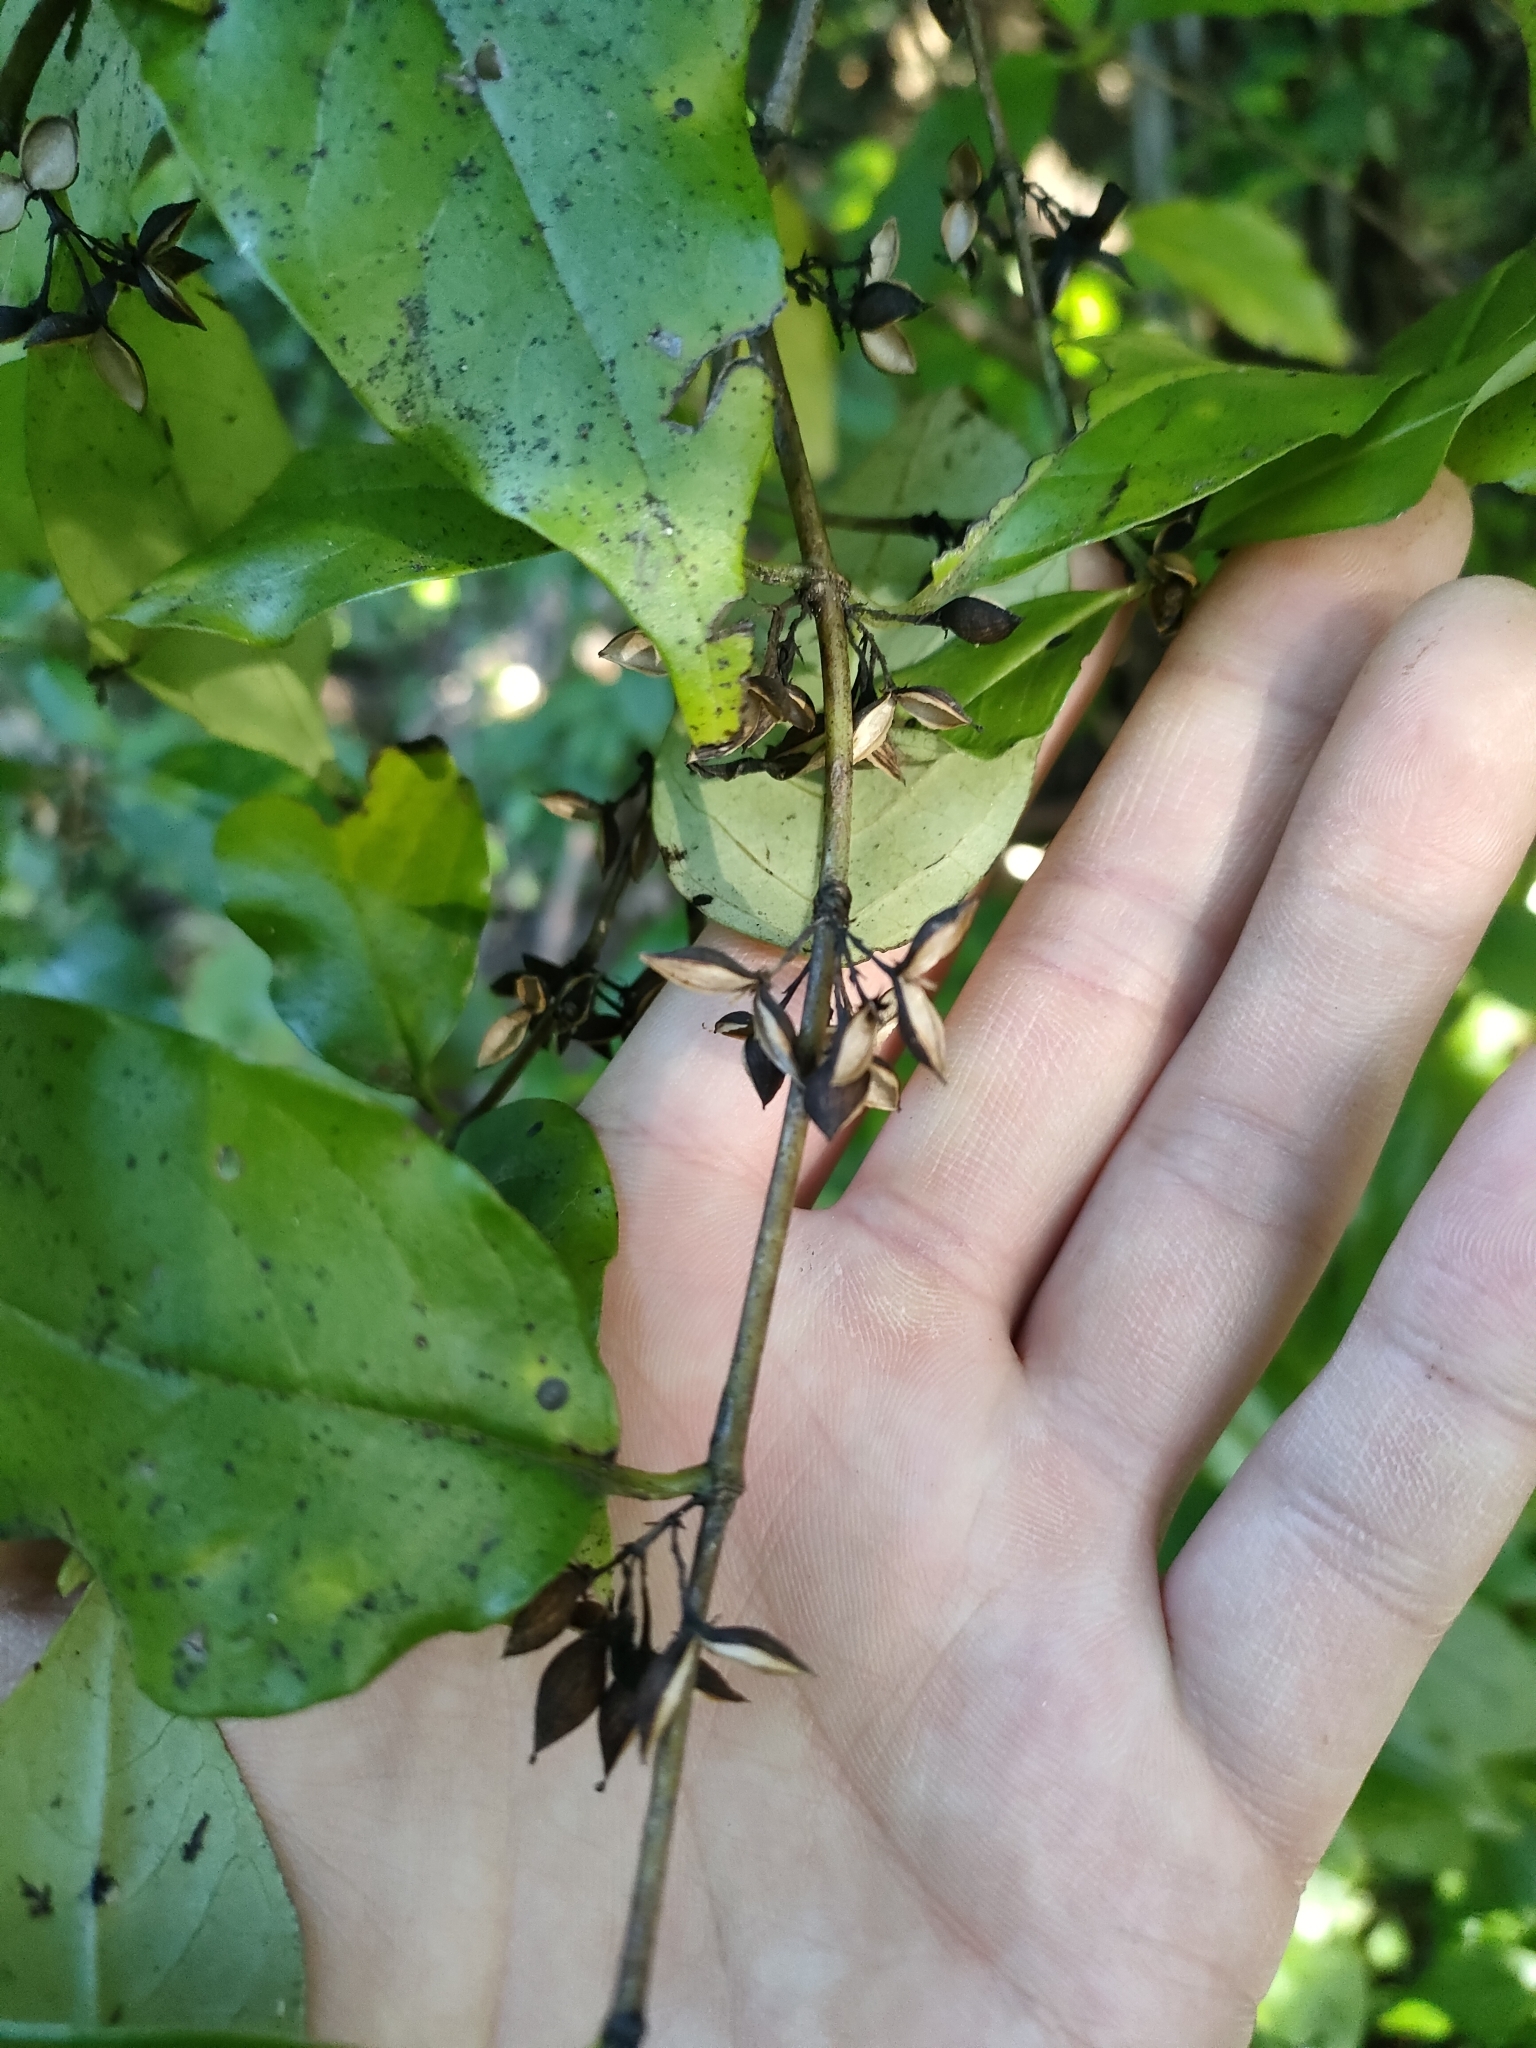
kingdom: Plantae
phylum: Tracheophyta
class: Magnoliopsida
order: Gentianales
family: Loganiaceae
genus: Geniostoma
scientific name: Geniostoma ligustrifolium
